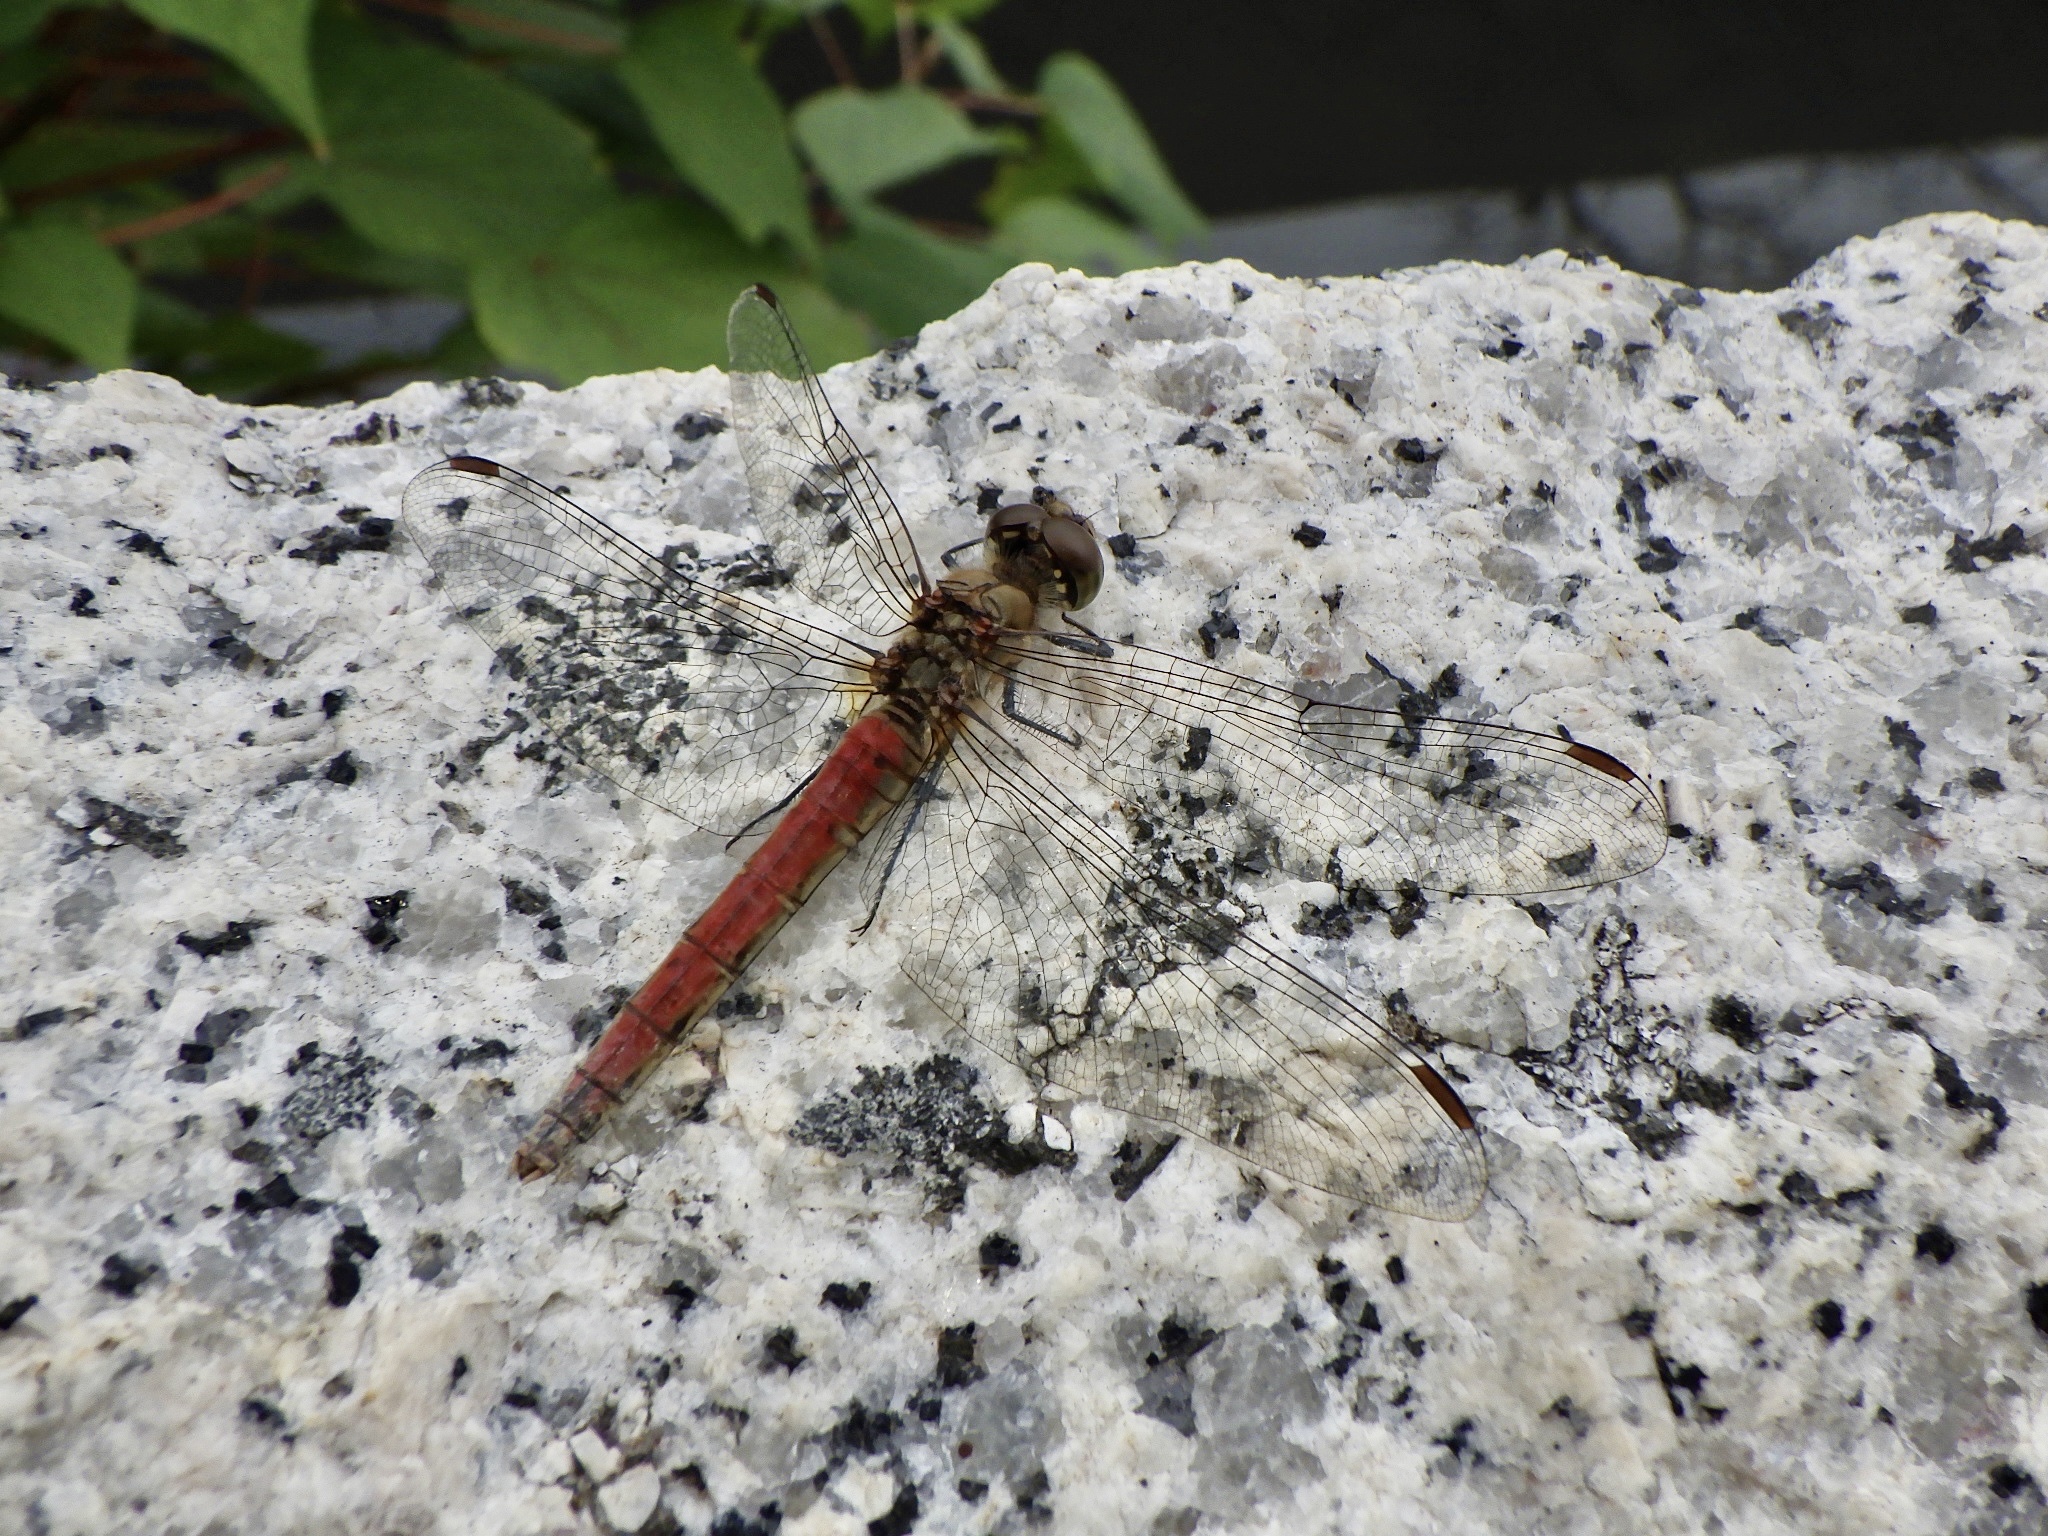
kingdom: Animalia
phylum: Arthropoda
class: Insecta
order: Odonata
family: Libellulidae
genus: Sympetrum
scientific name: Sympetrum frequens
